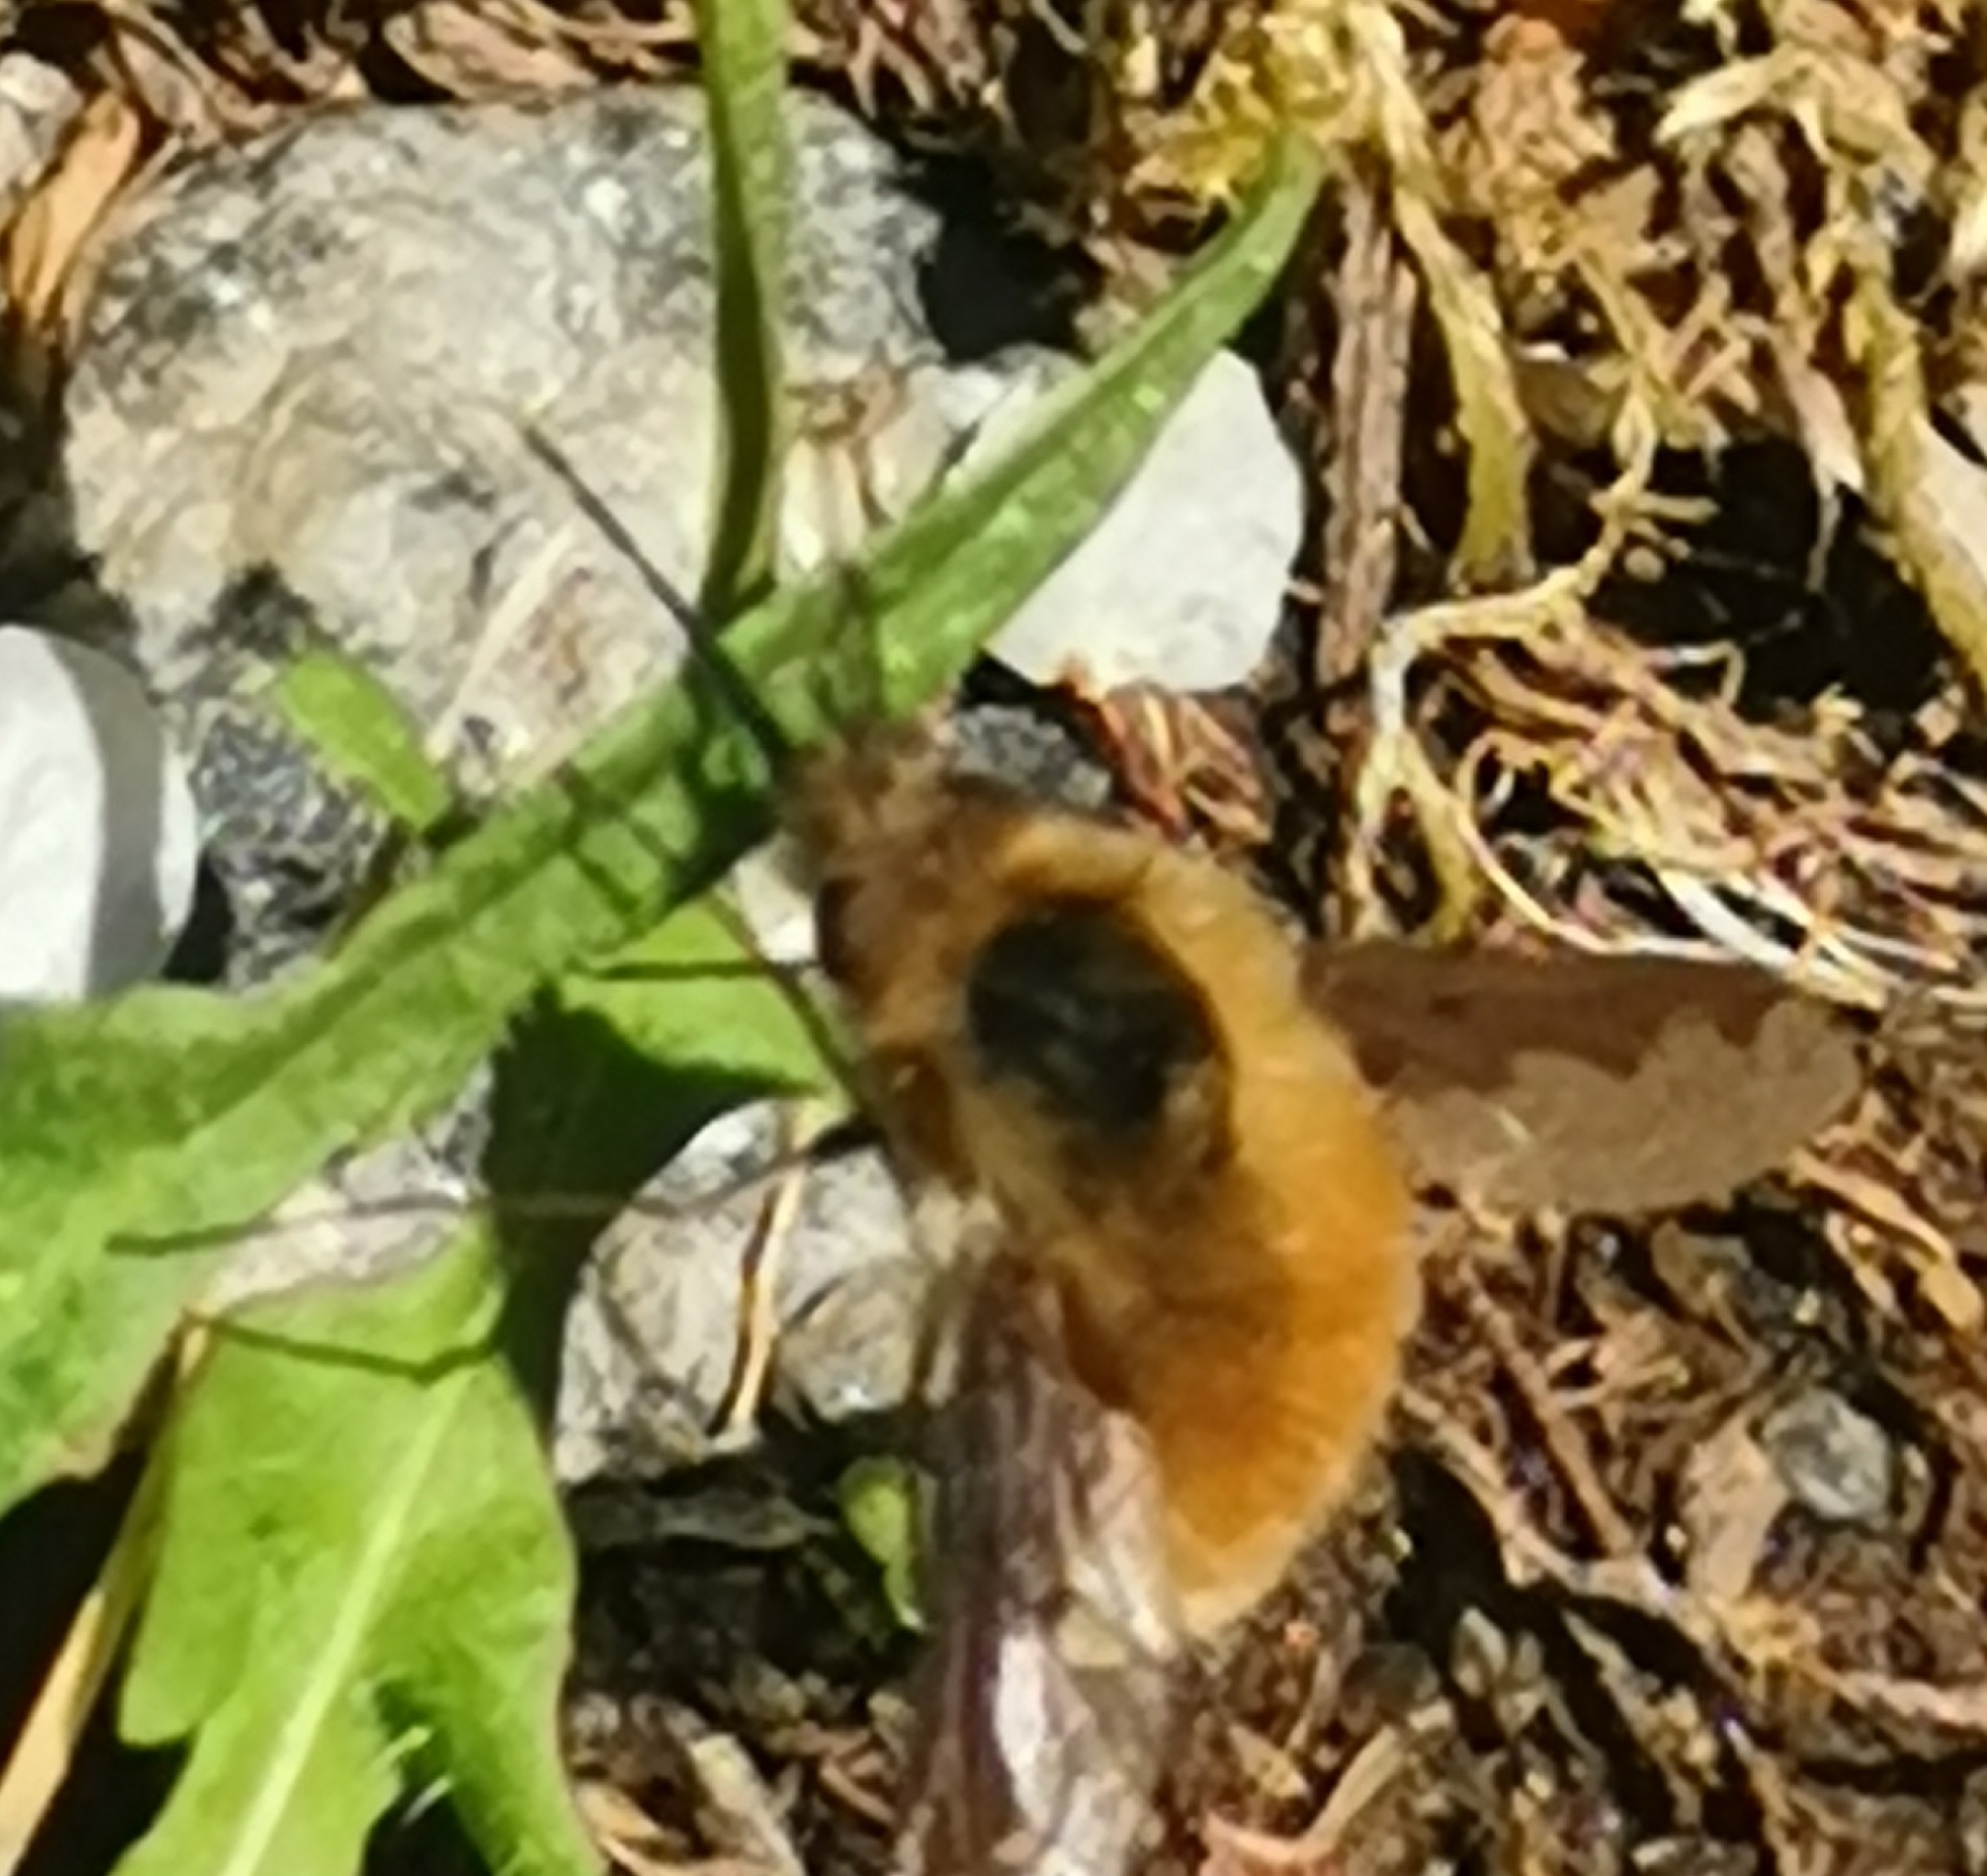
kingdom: Animalia
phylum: Arthropoda
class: Insecta
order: Diptera
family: Bombyliidae
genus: Bombylius
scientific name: Bombylius major
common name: Bee fly
